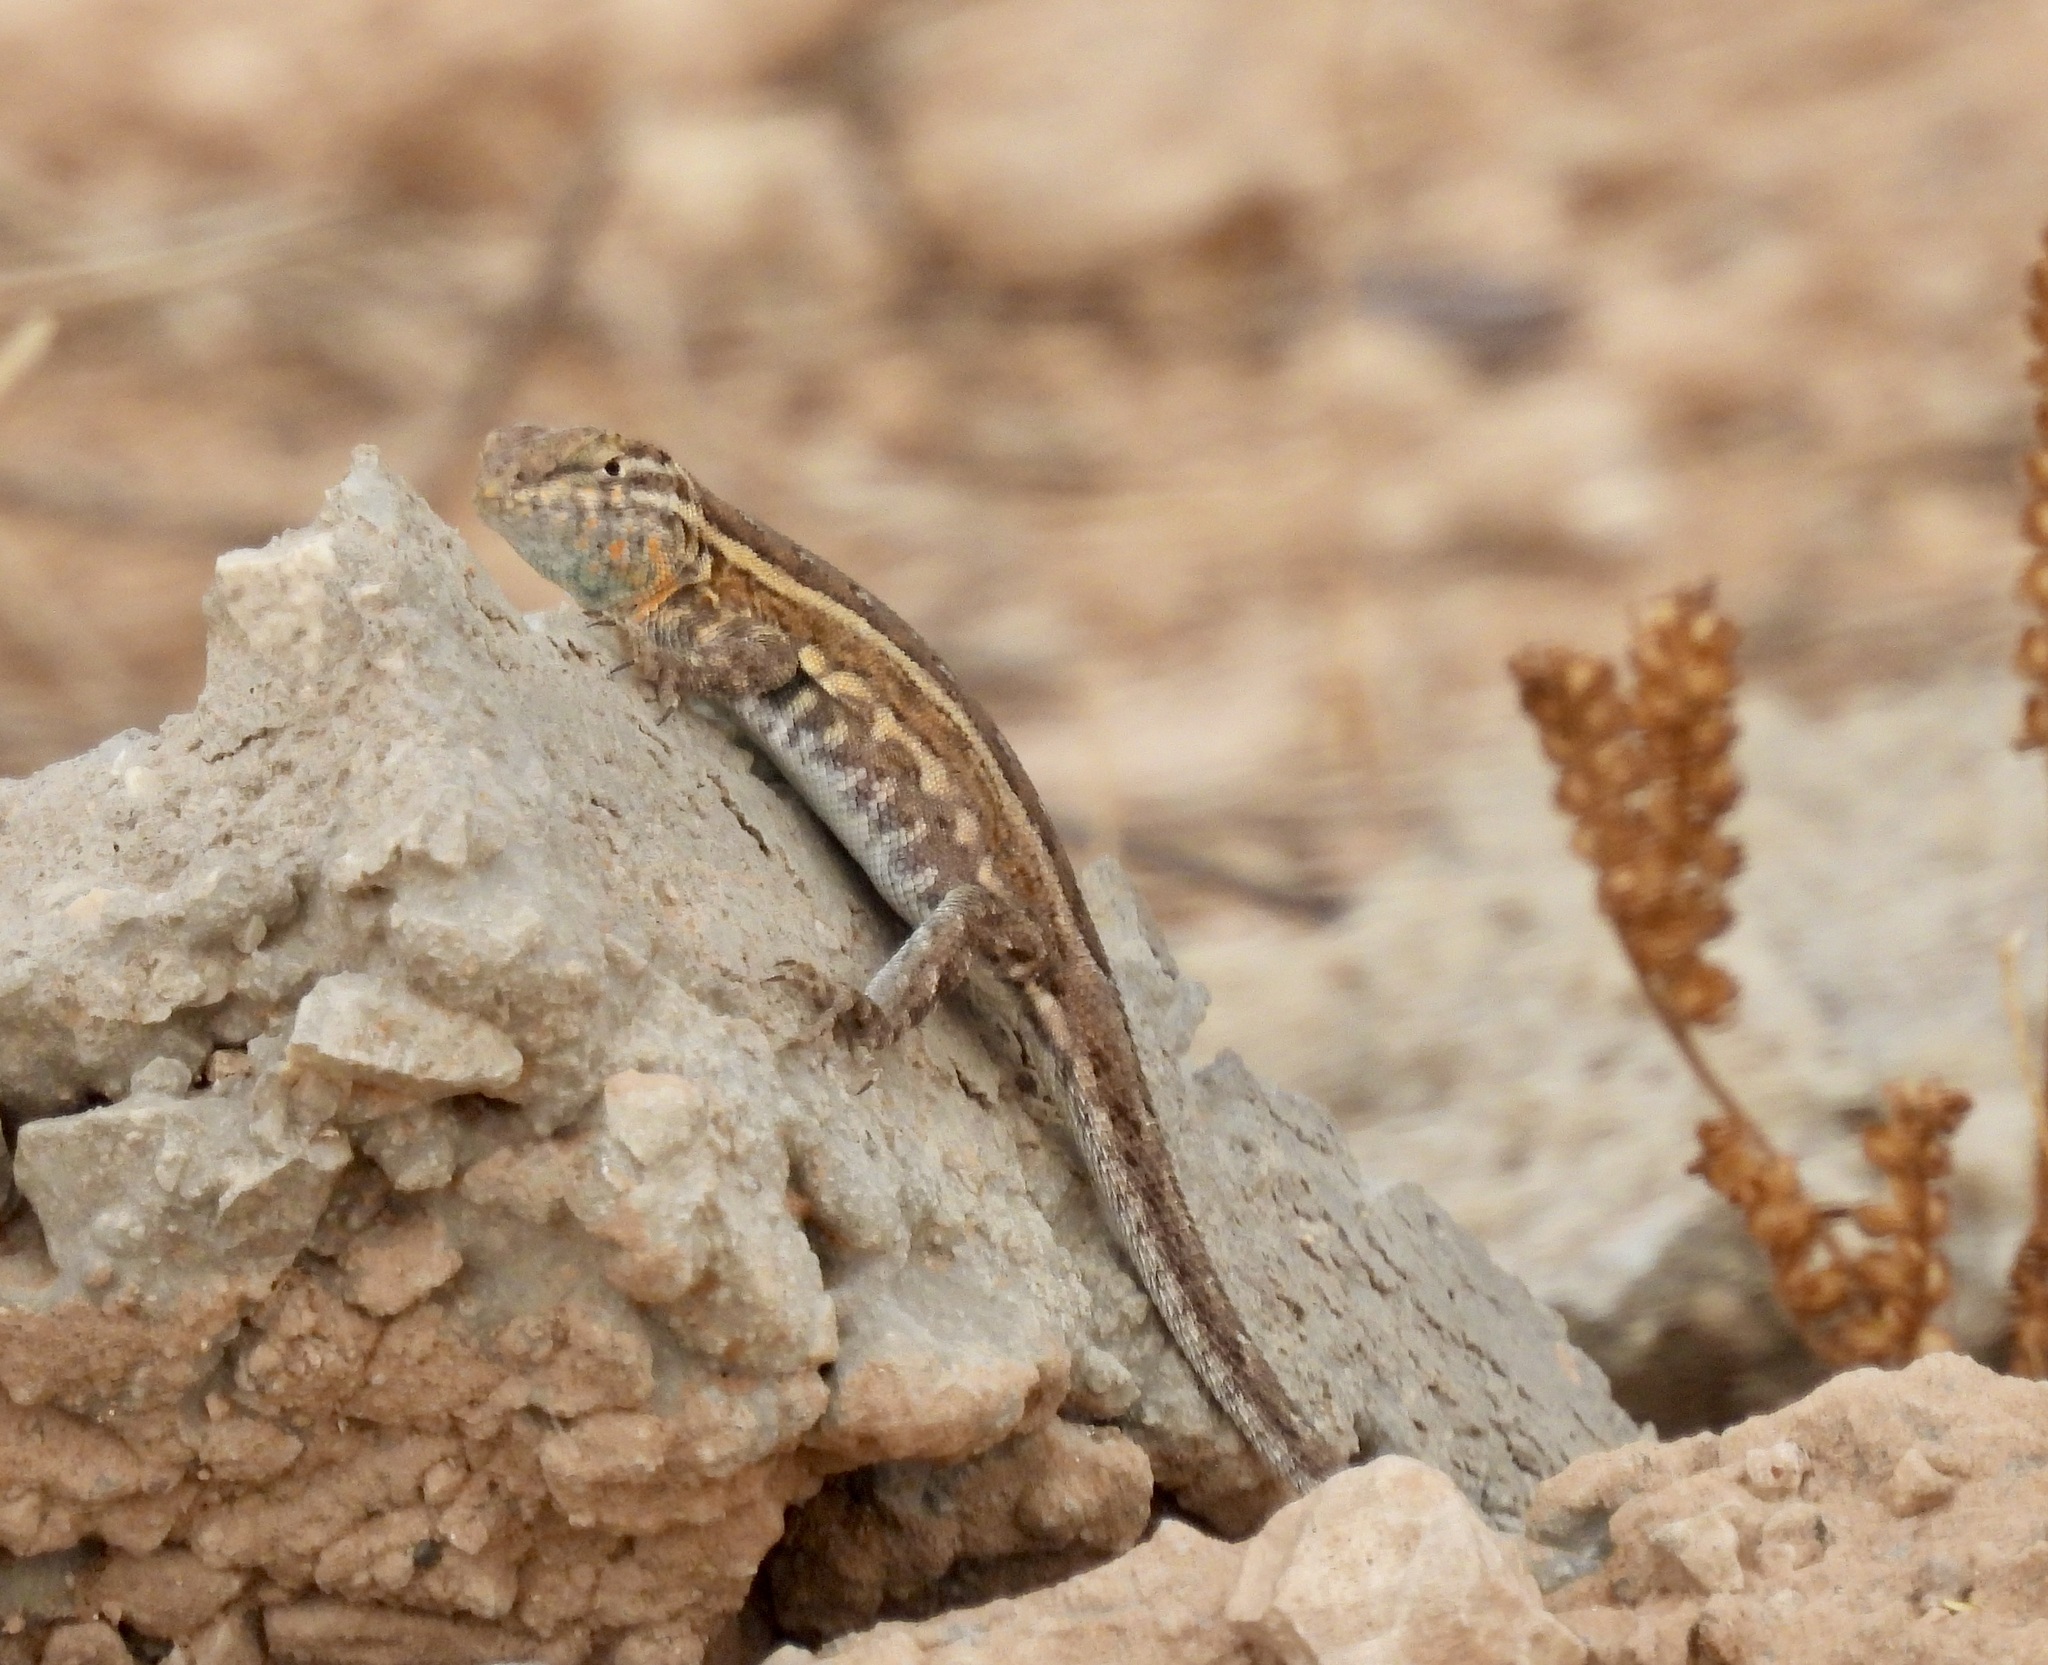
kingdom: Animalia
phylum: Chordata
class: Squamata
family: Phrynosomatidae
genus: Uta
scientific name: Uta stansburiana
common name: Side-blotched lizard
